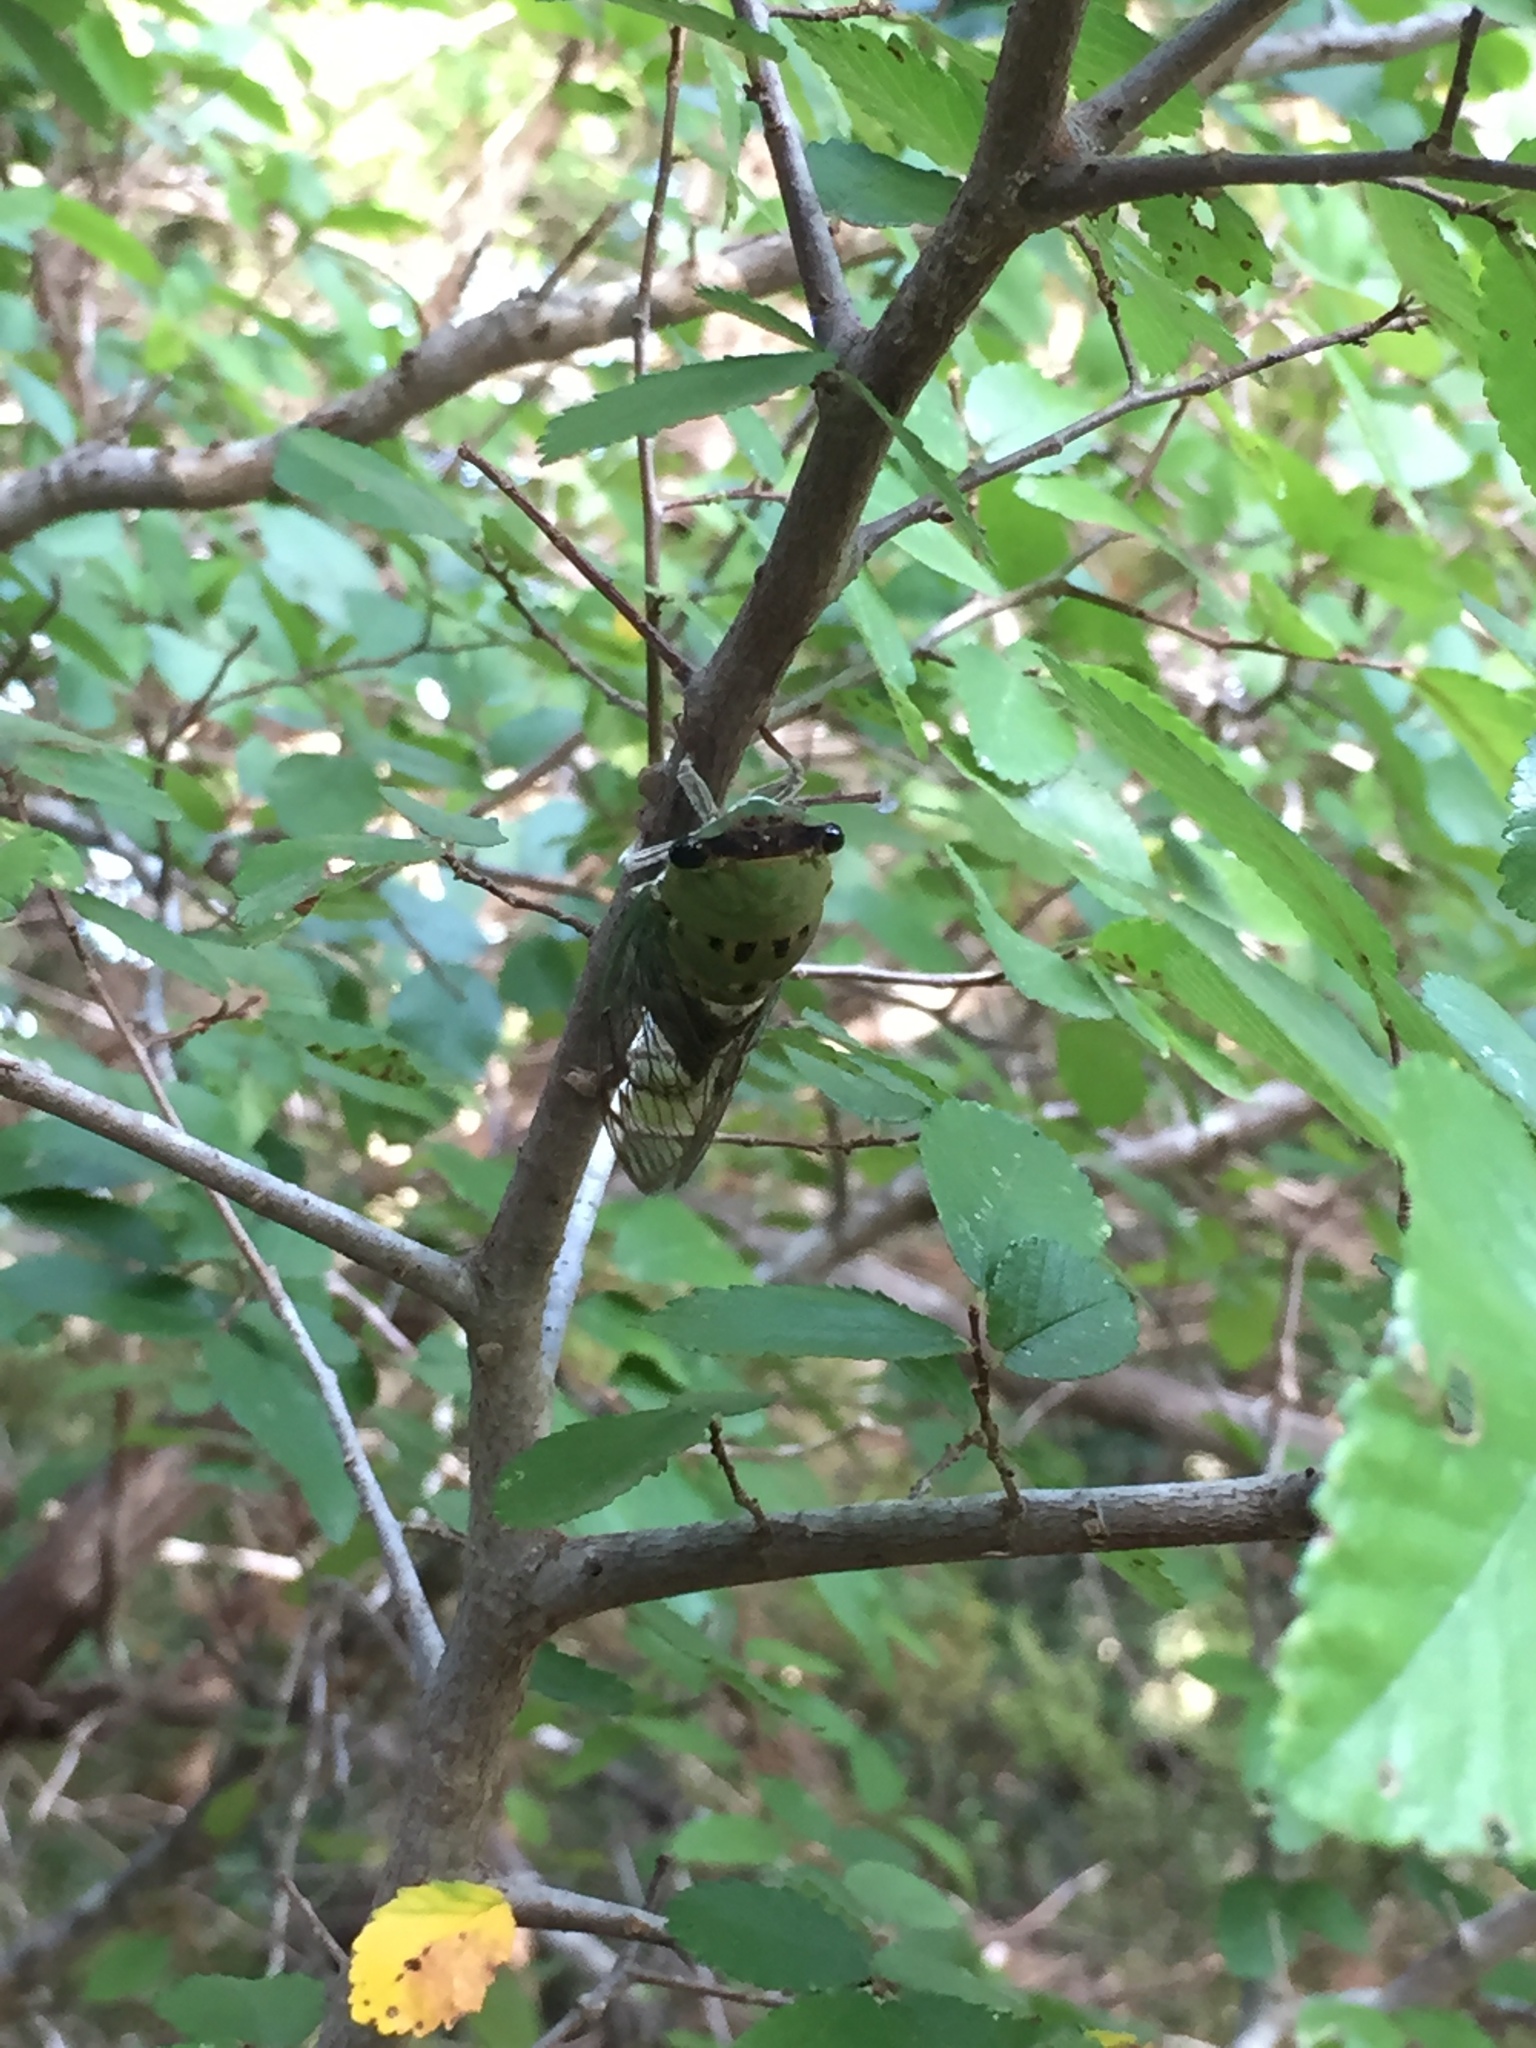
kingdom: Animalia
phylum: Arthropoda
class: Insecta
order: Hemiptera
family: Cicadidae
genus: Neotibicen
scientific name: Neotibicen superbus
